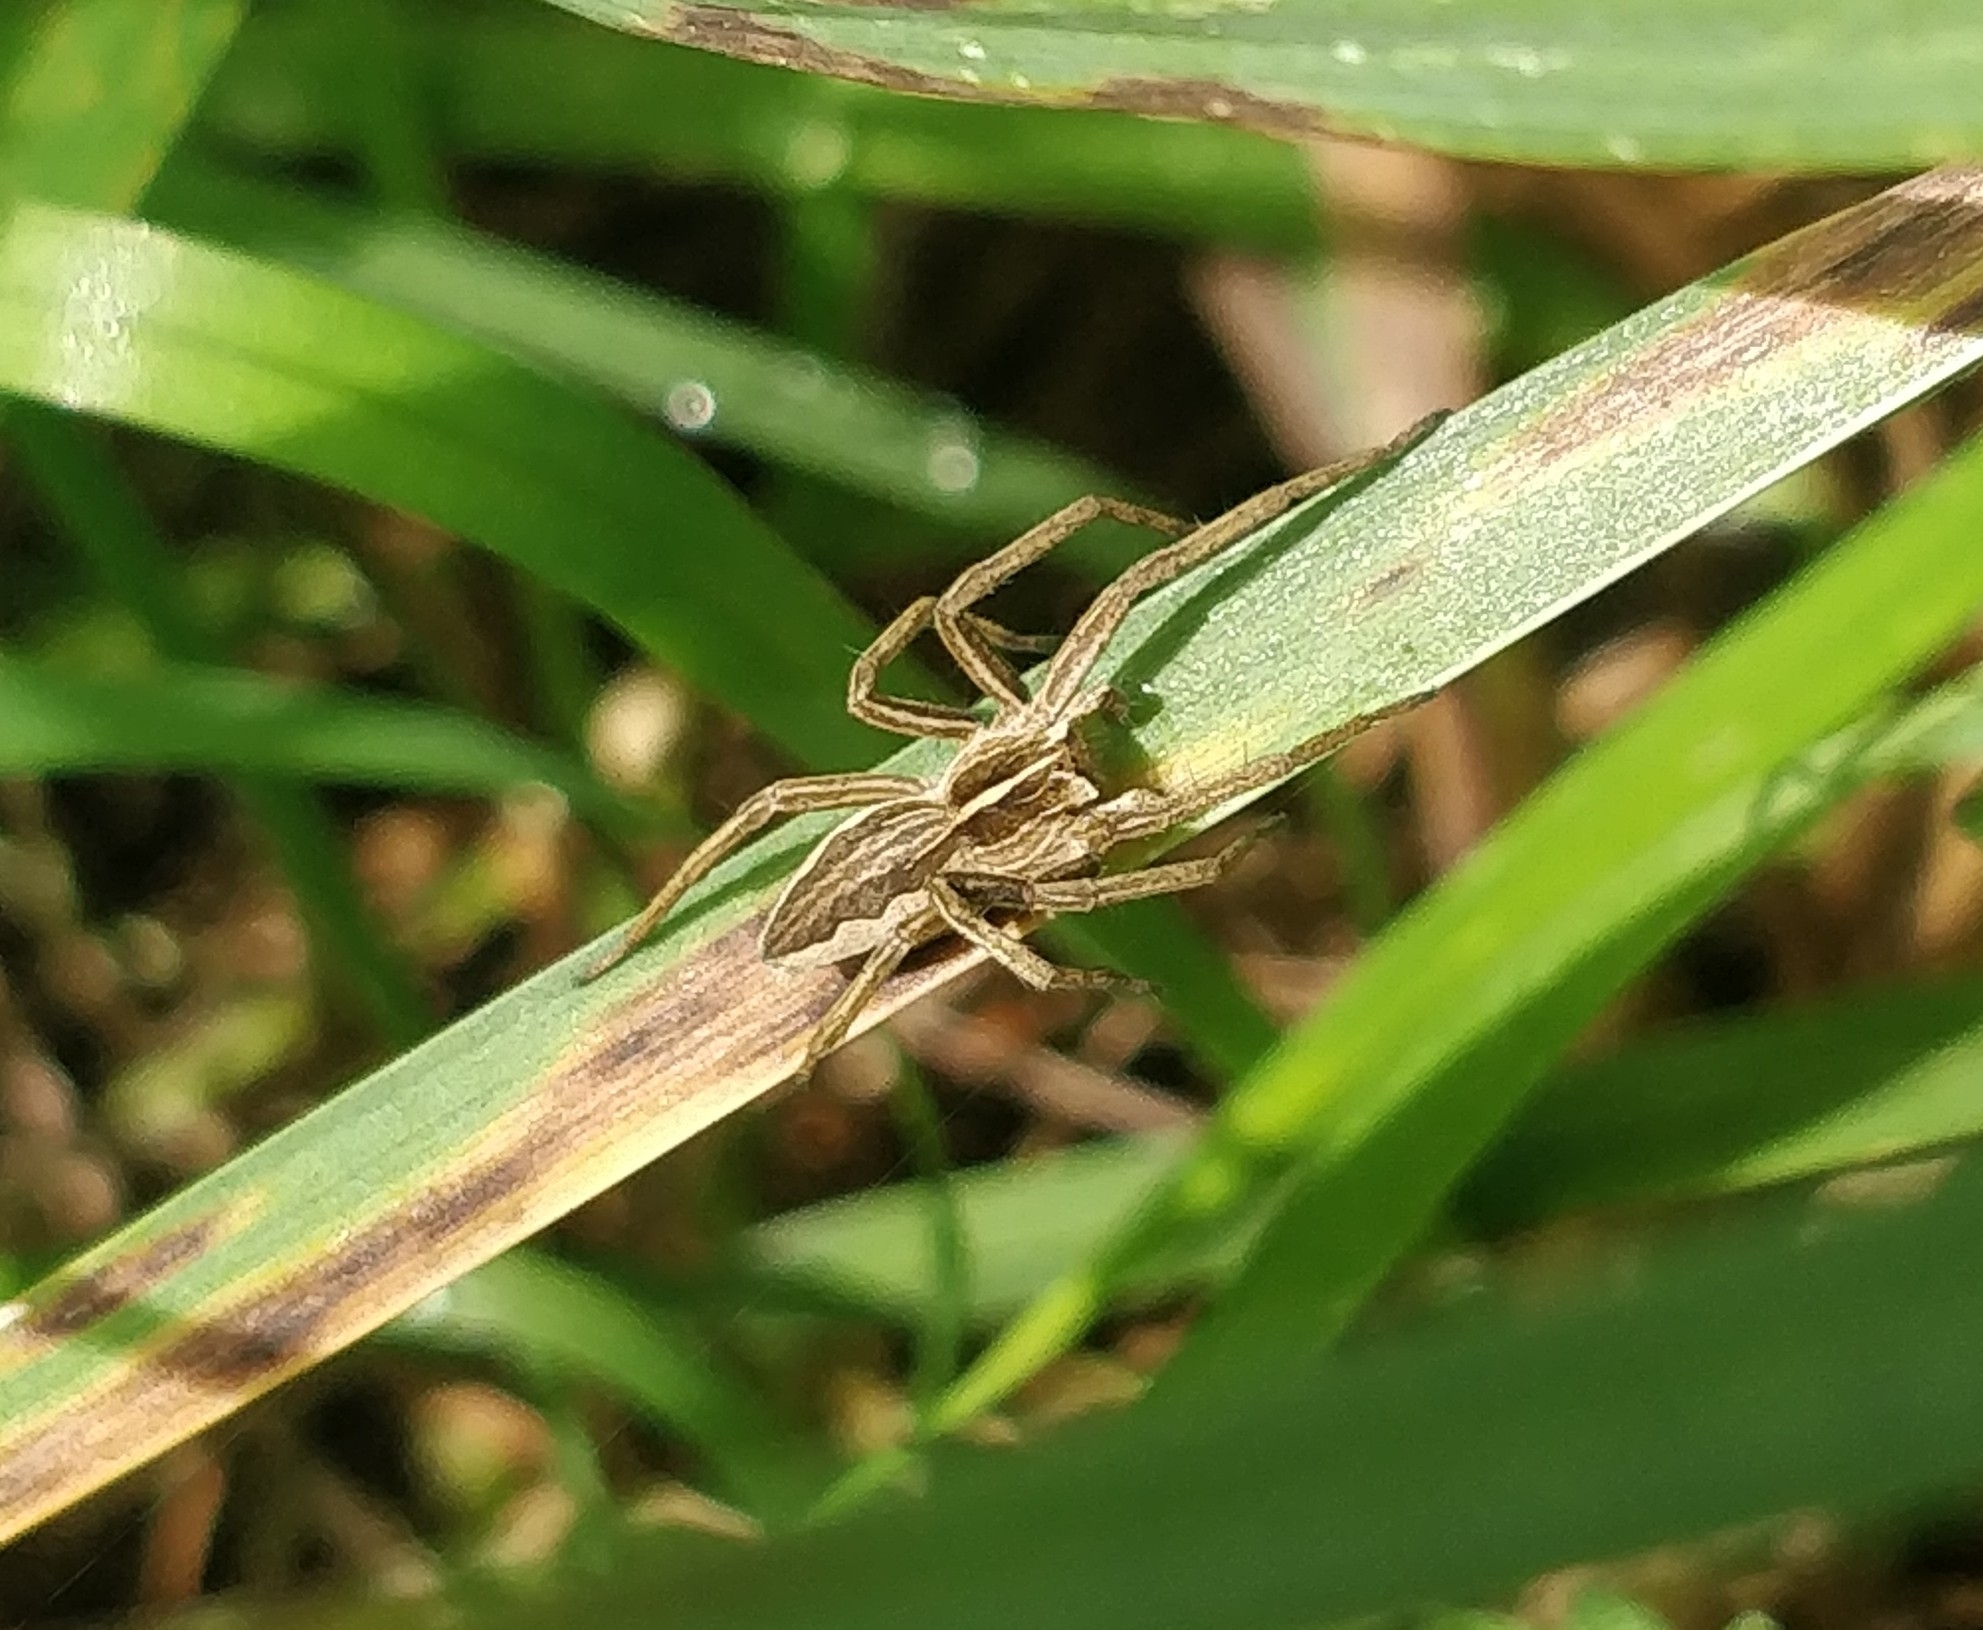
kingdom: Animalia
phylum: Arthropoda
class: Arachnida
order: Araneae
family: Pisauridae
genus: Pisaura
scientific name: Pisaura mirabilis
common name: Tent spider
